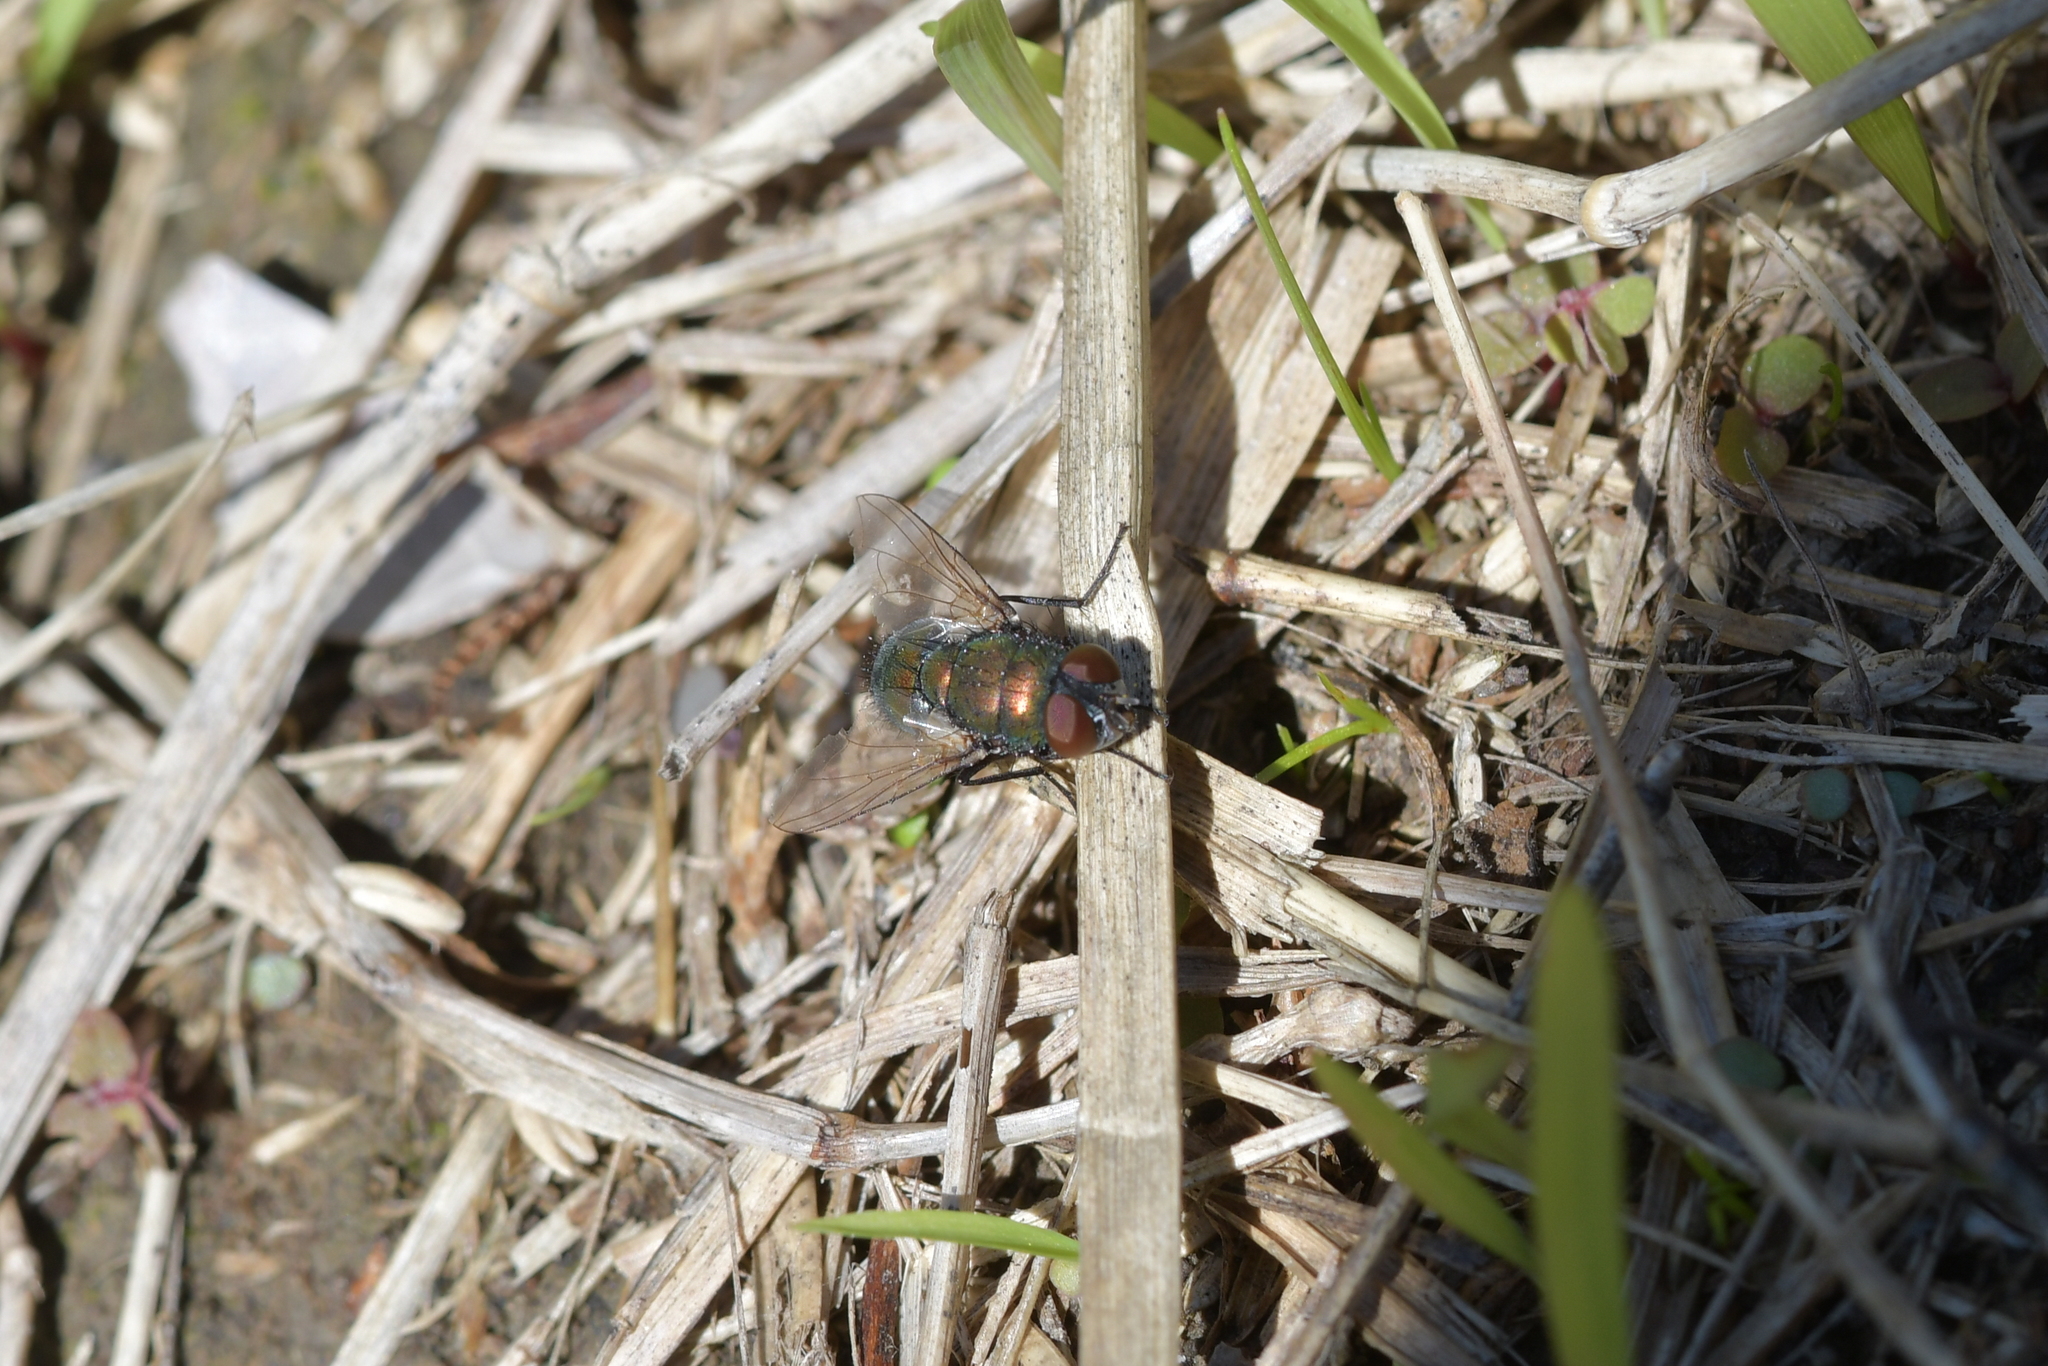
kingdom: Animalia
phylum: Arthropoda
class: Insecta
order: Diptera
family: Calliphoridae
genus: Lucilia
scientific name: Lucilia sericata
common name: Blow fly
